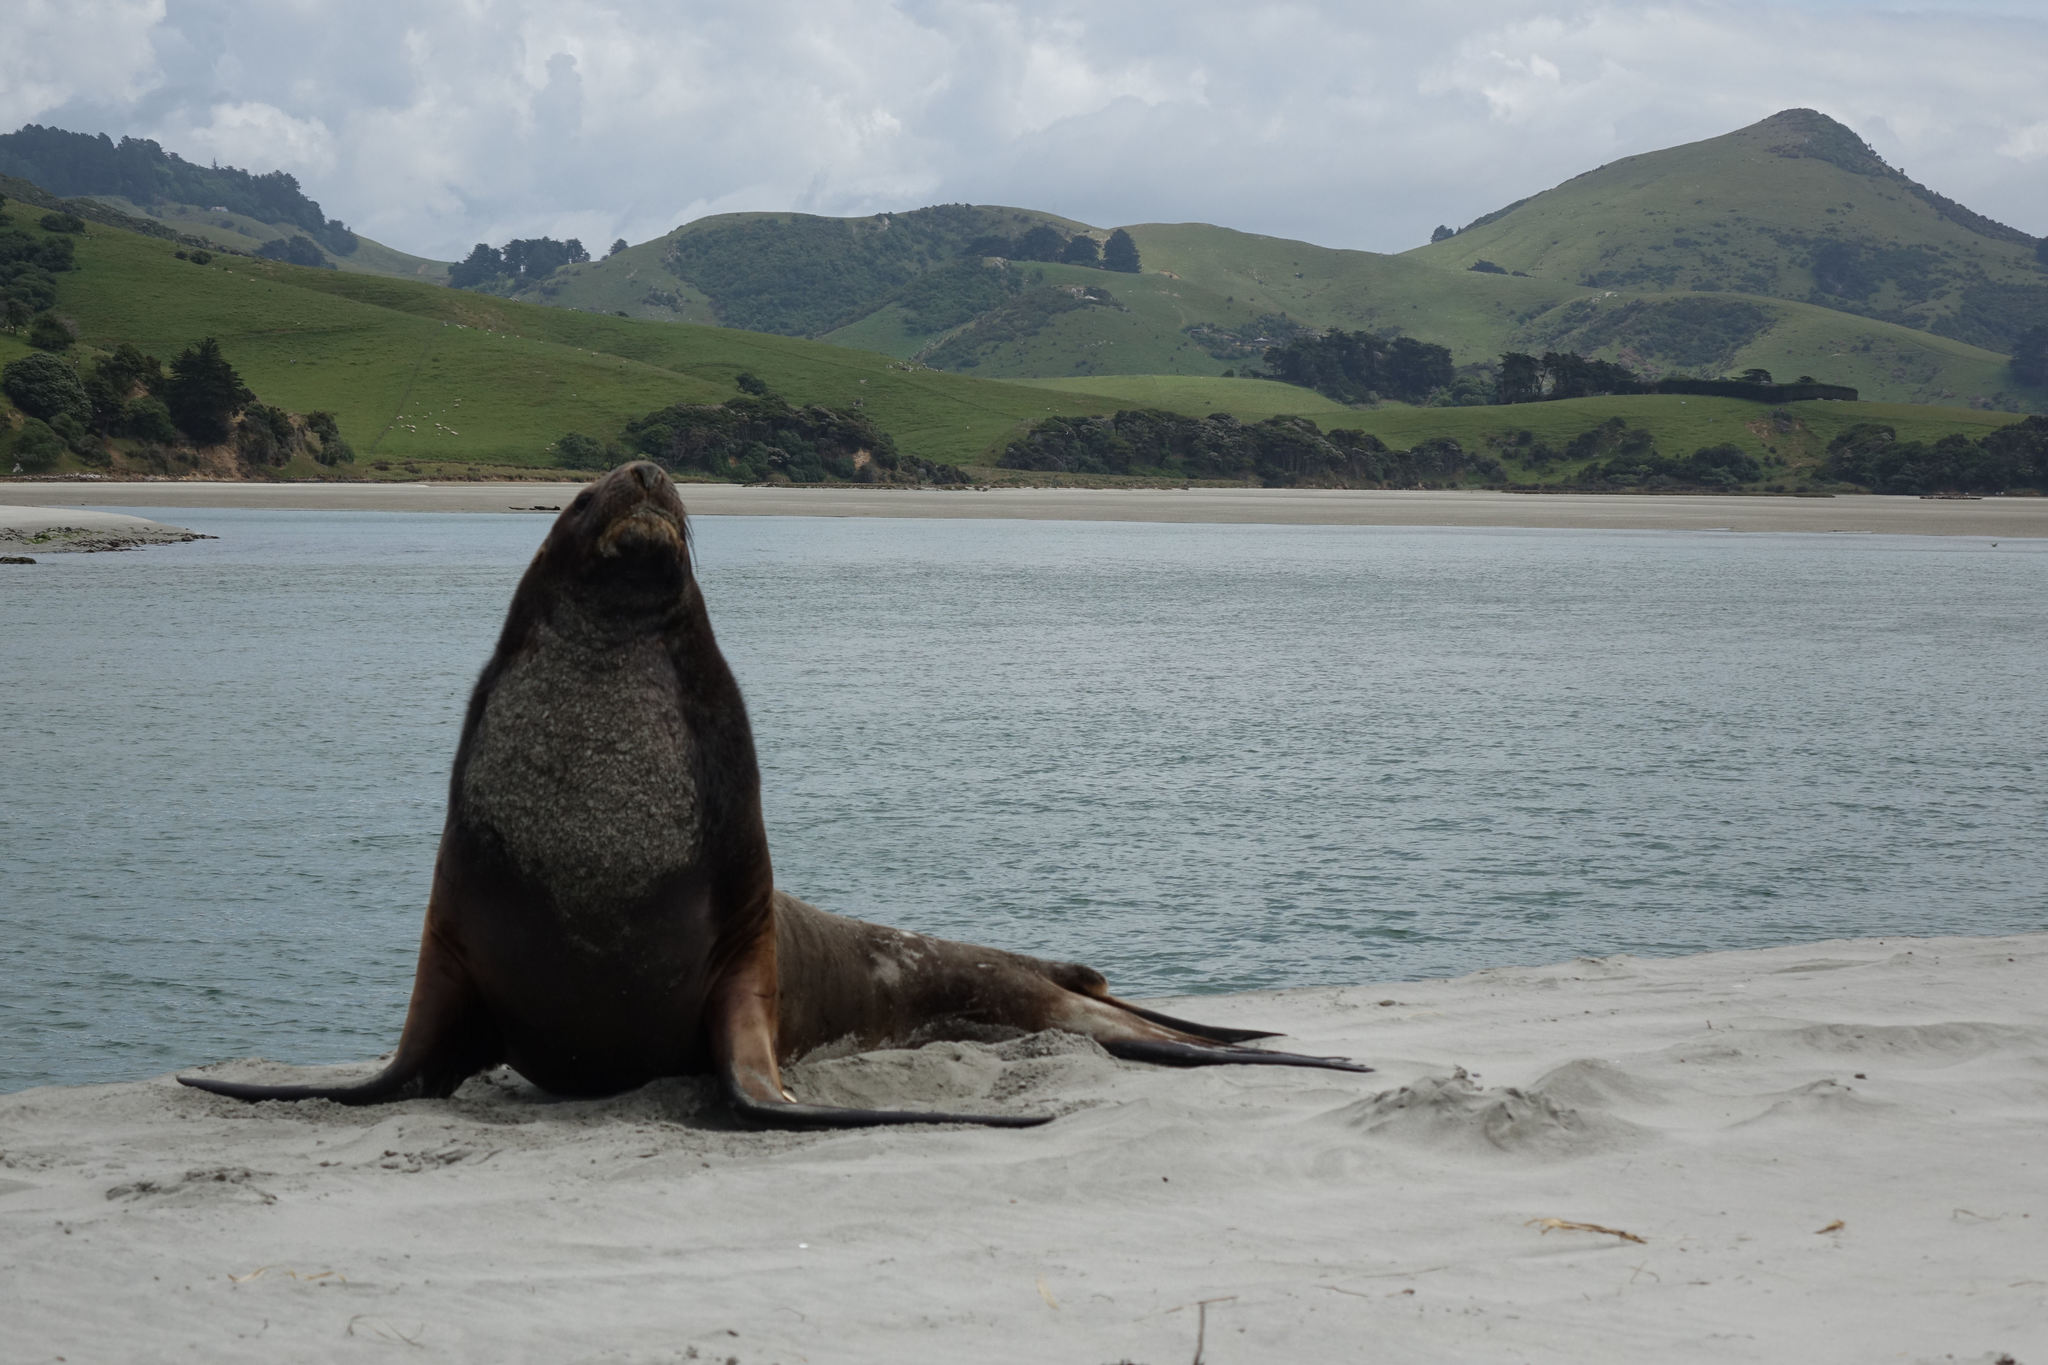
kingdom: Animalia
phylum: Chordata
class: Mammalia
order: Carnivora
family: Otariidae
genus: Phocarctos
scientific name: Phocarctos hookeri
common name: New zealand sea lion
